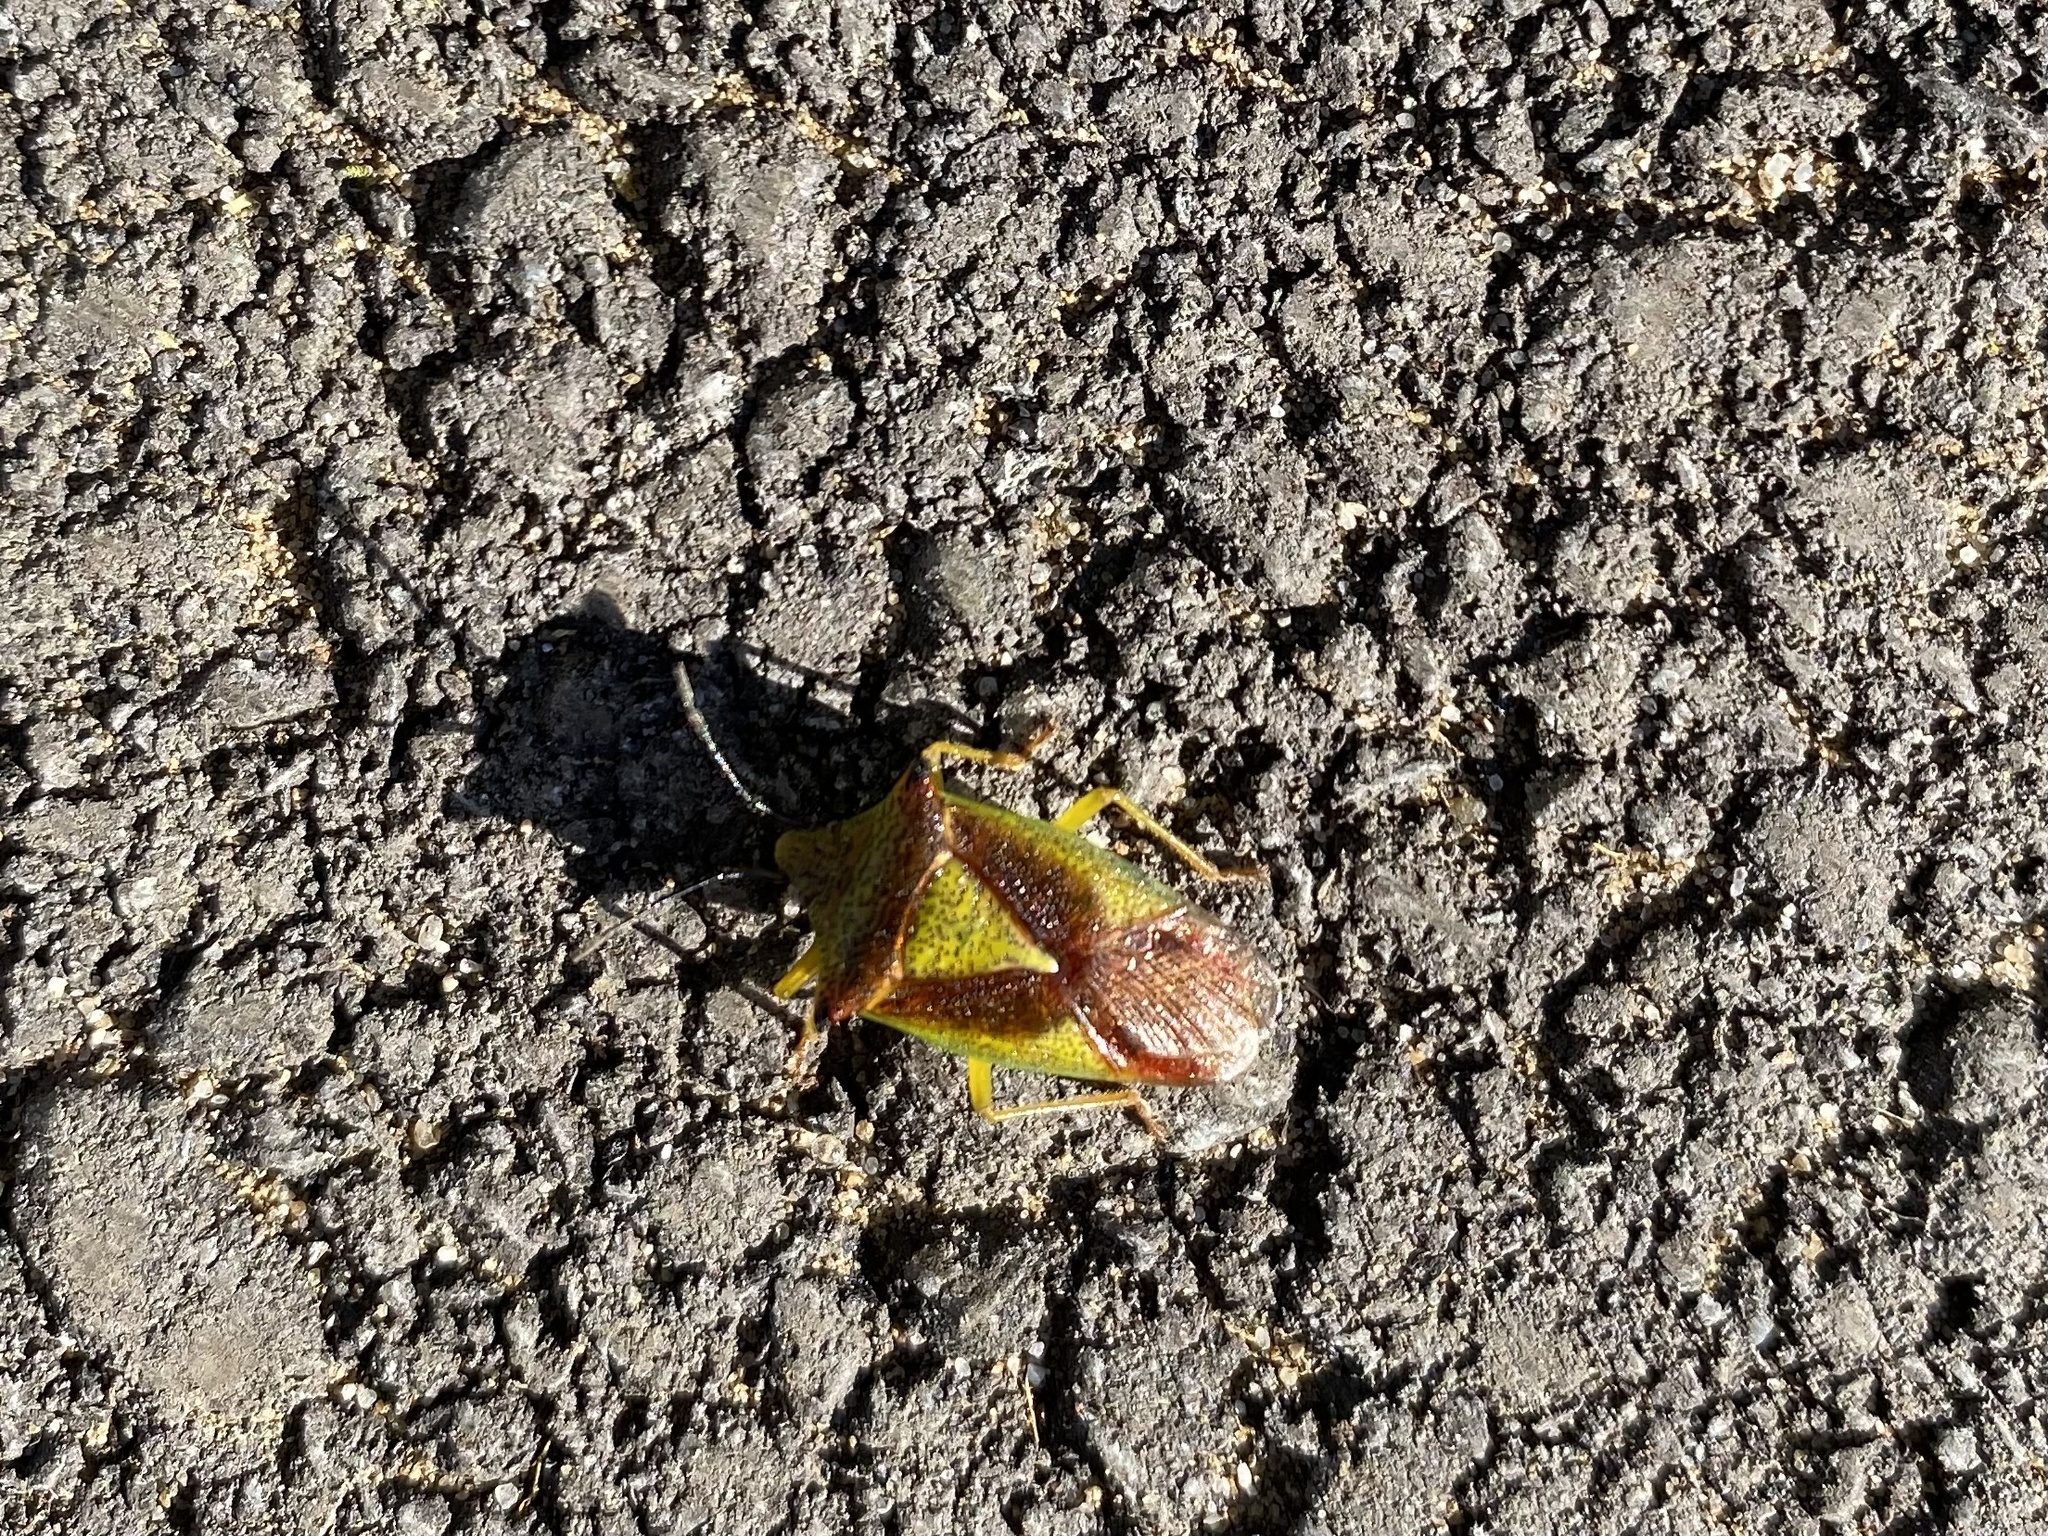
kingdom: Animalia
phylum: Arthropoda
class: Insecta
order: Hemiptera
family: Acanthosomatidae
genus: Acanthosoma
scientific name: Acanthosoma haemorrhoidale
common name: Hawthorn shieldbug
